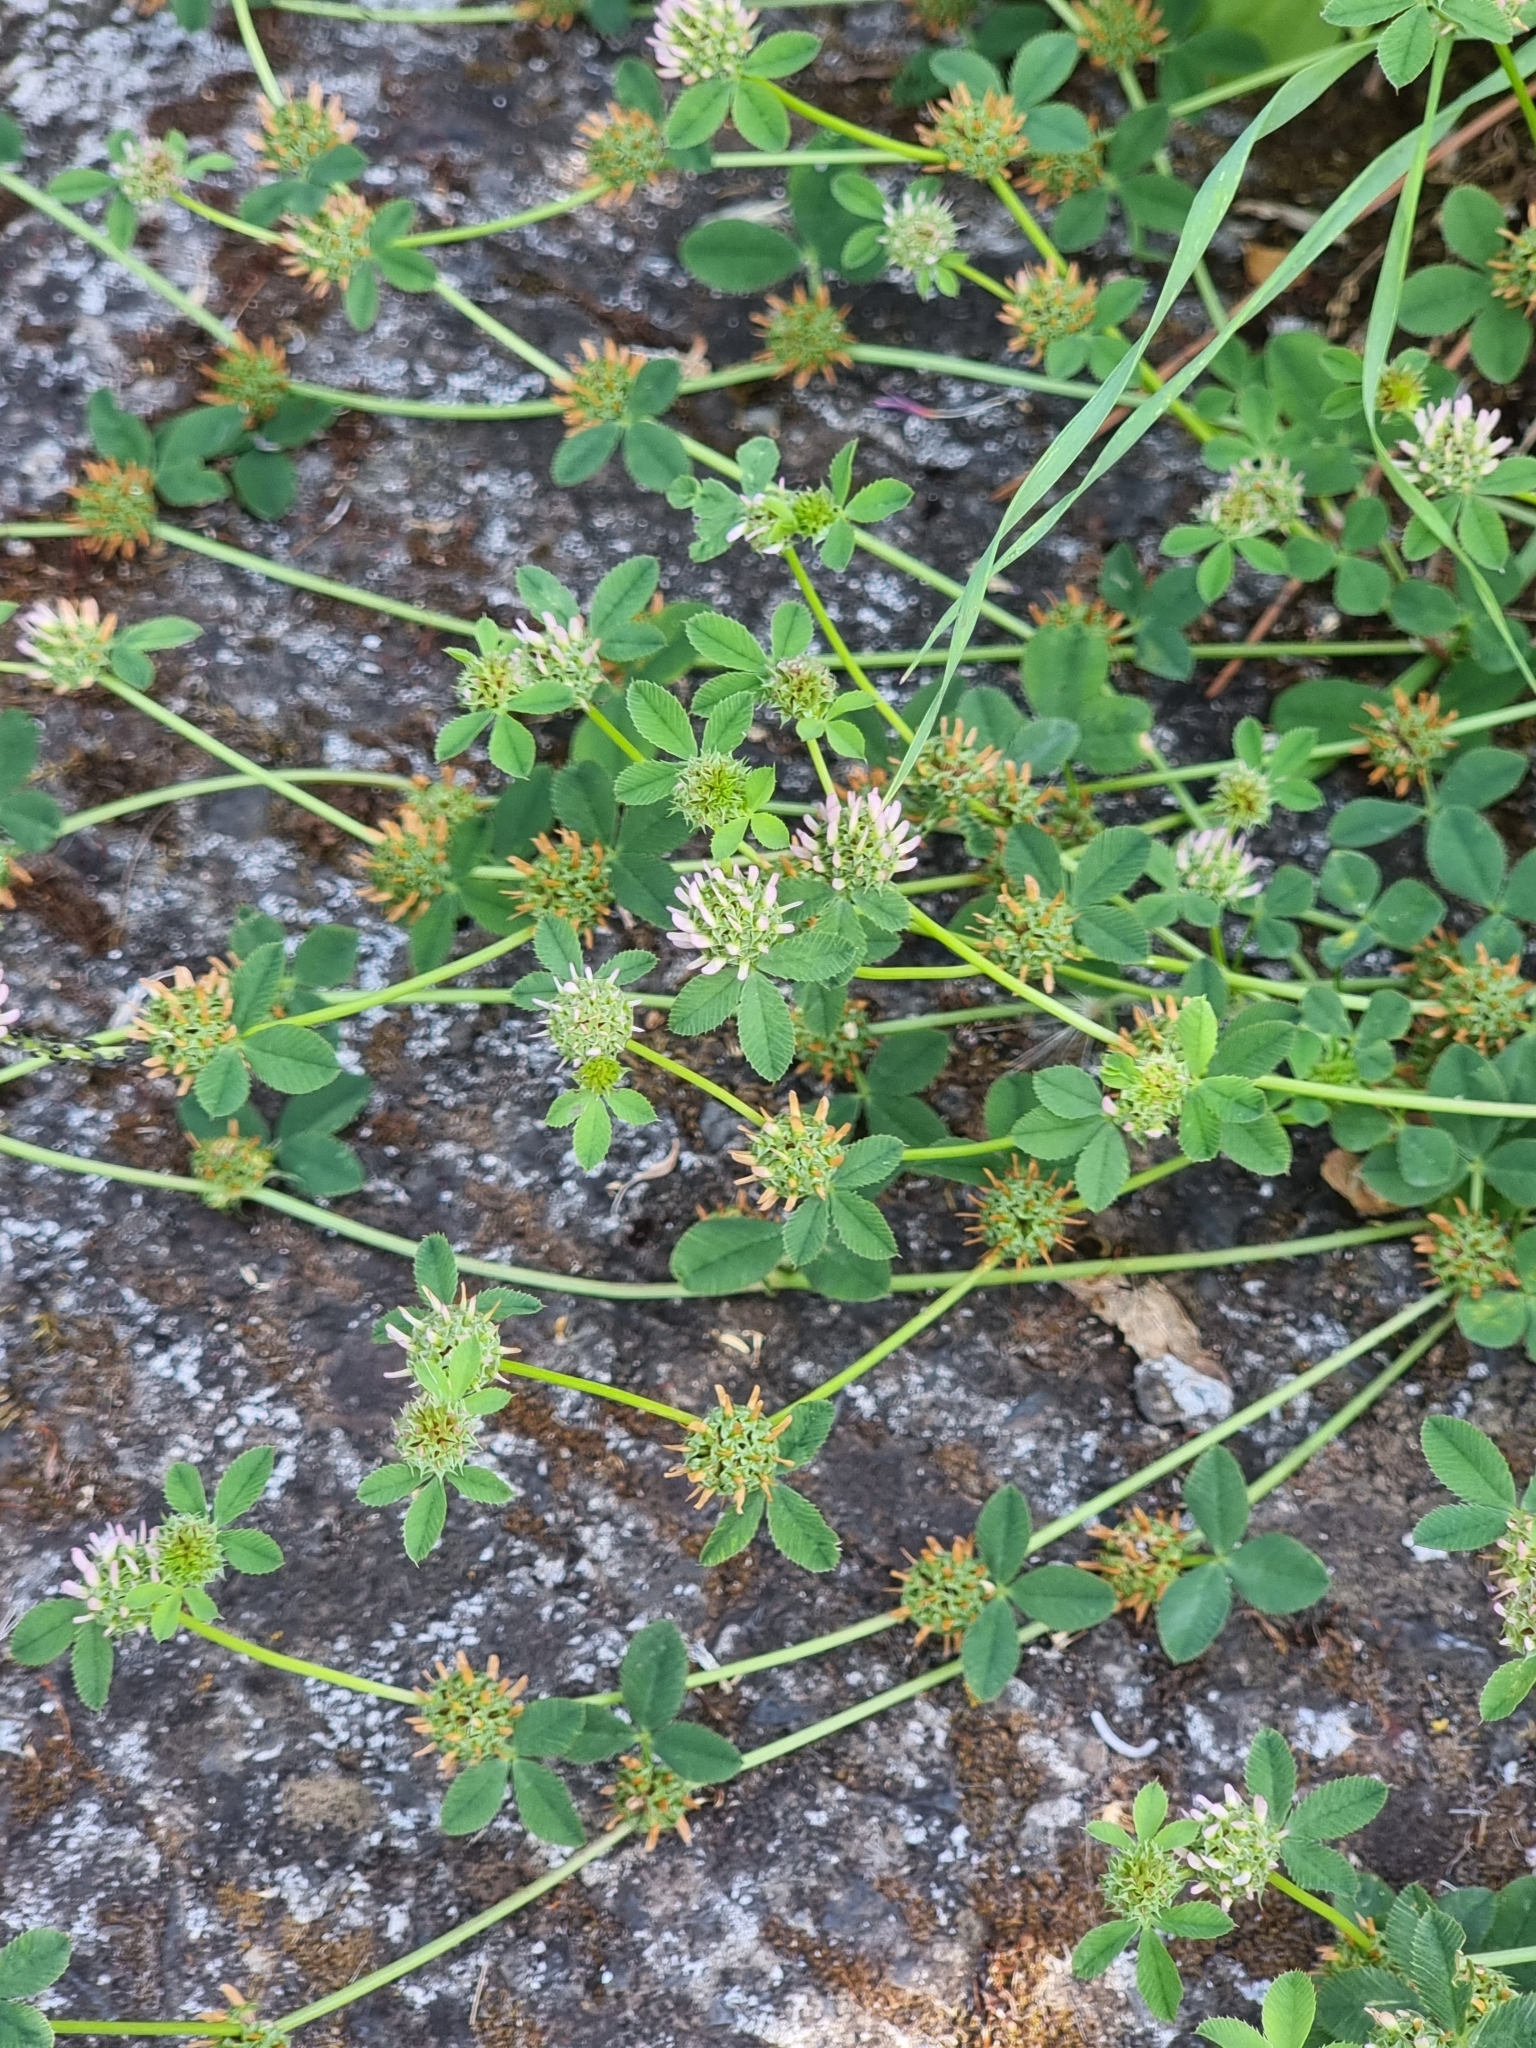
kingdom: Plantae
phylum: Tracheophyta
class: Magnoliopsida
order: Fabales
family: Fabaceae
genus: Trifolium
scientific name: Trifolium glomeratum
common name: Clustered clover
